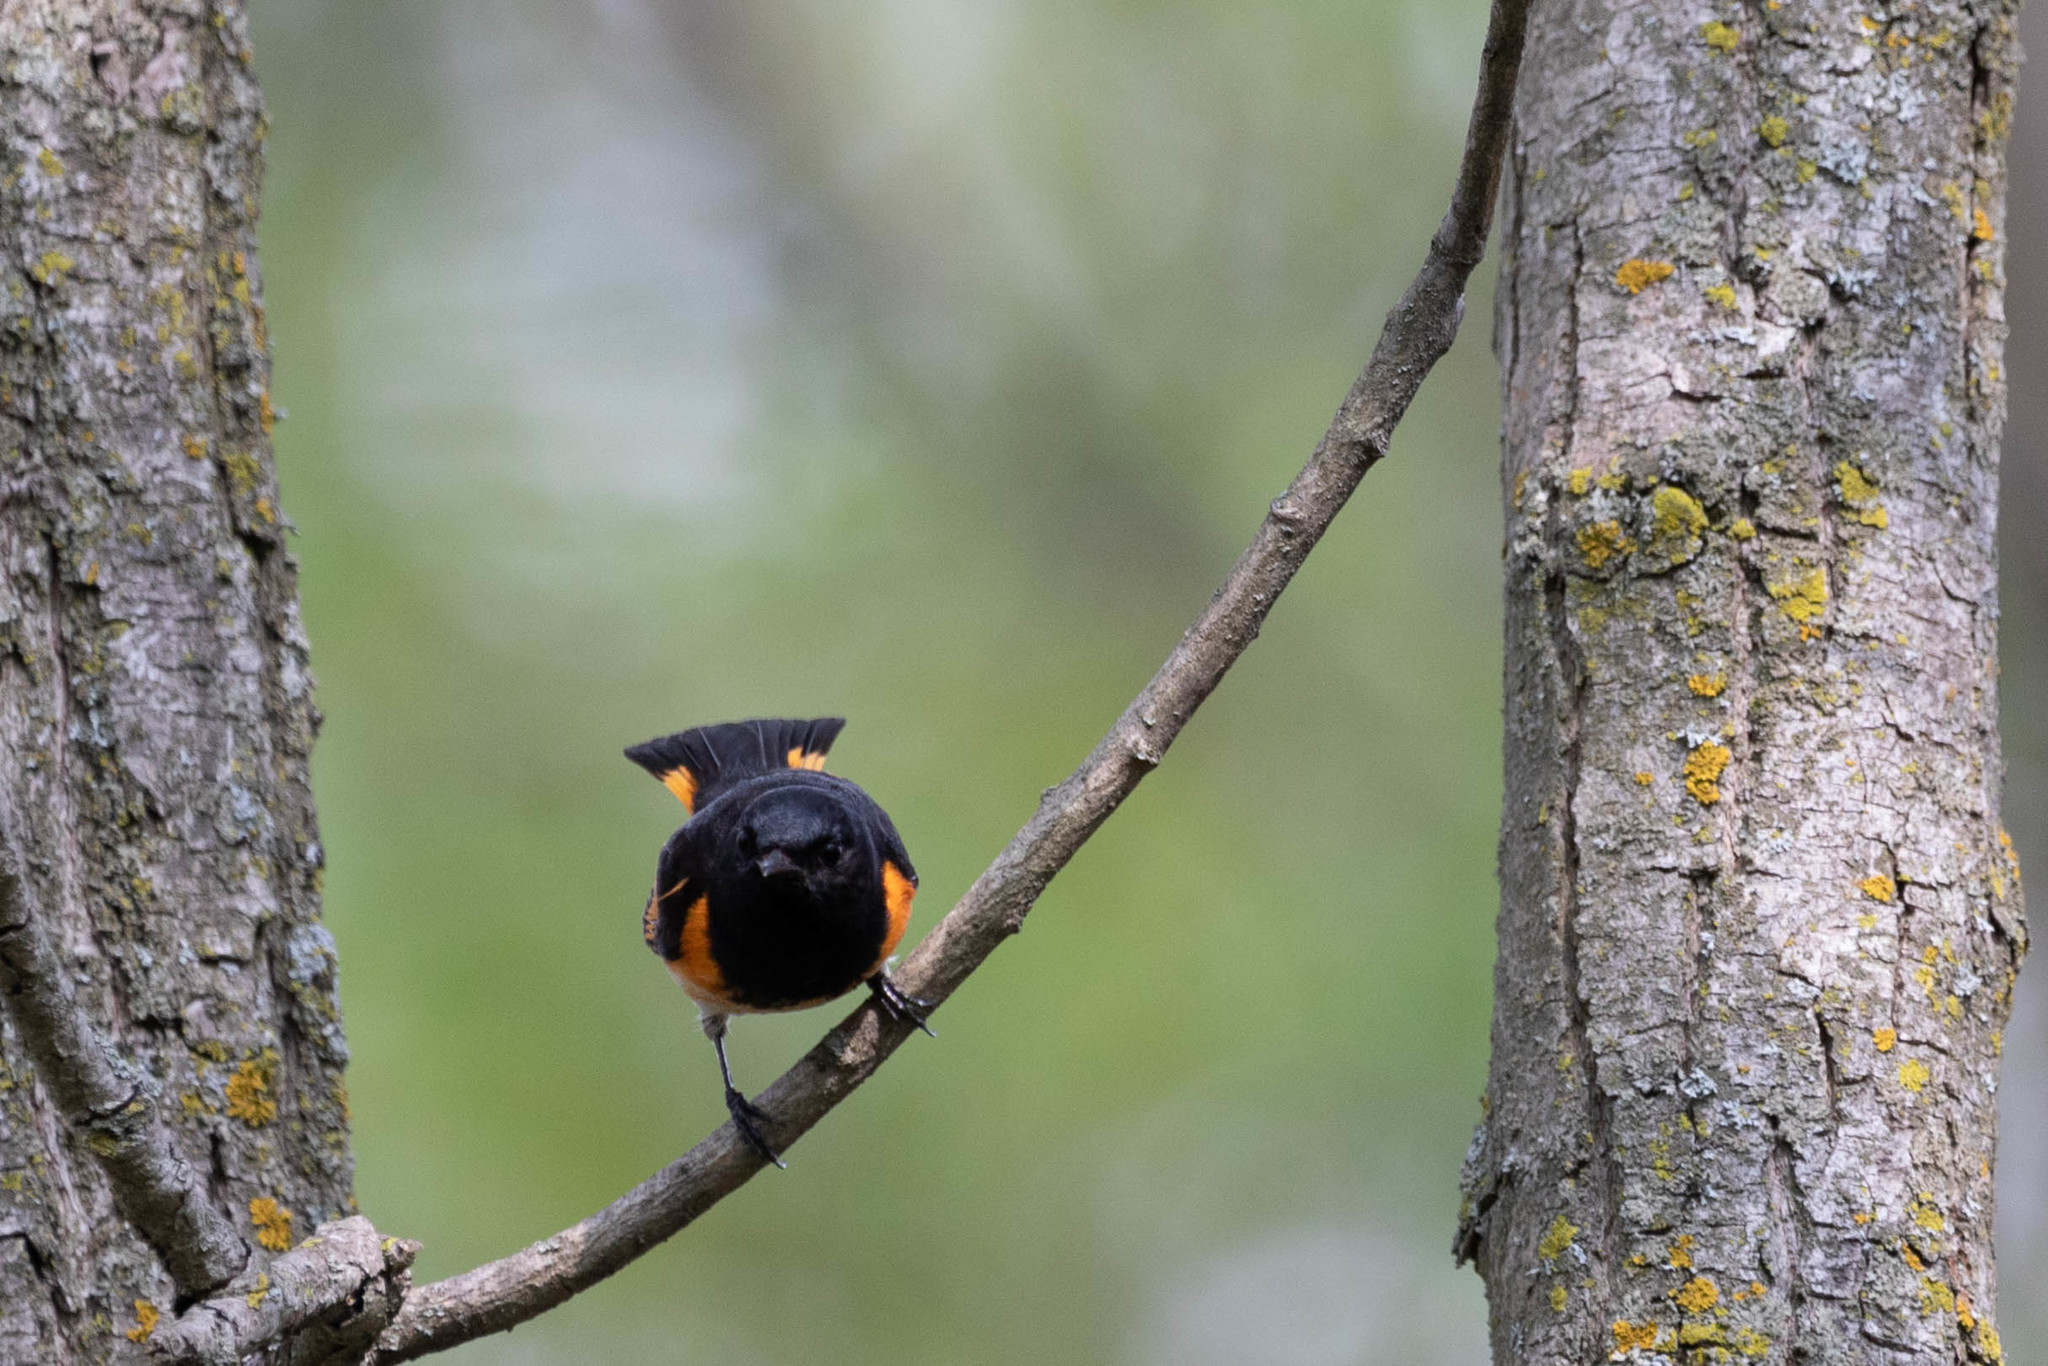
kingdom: Animalia
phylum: Chordata
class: Aves
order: Passeriformes
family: Parulidae
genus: Setophaga
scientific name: Setophaga ruticilla
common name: American redstart
